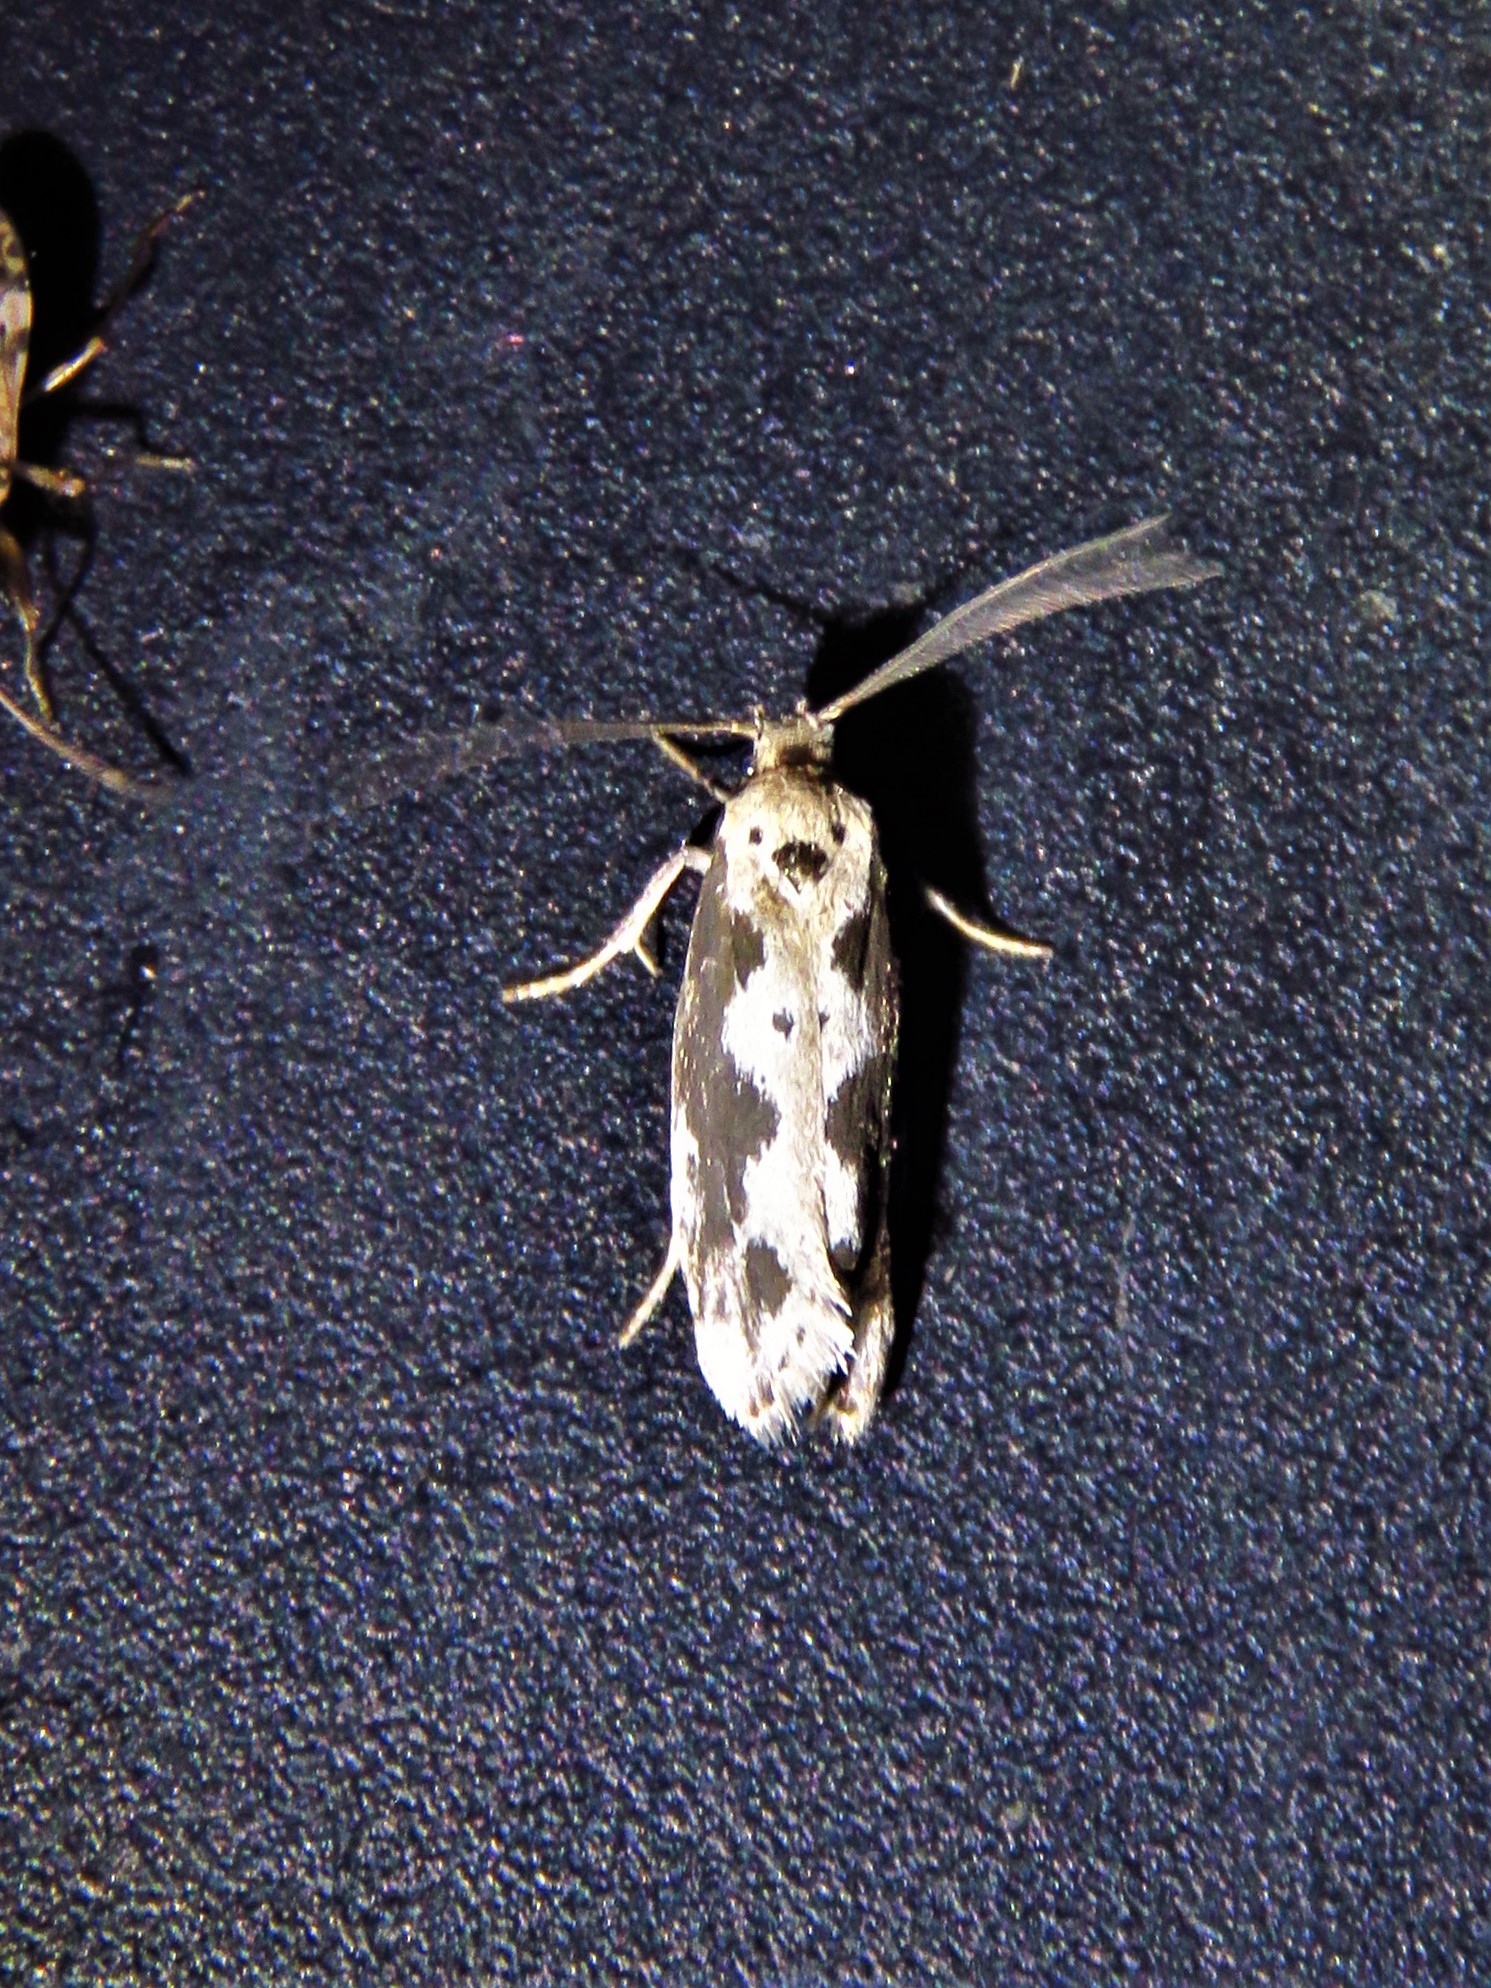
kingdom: Animalia
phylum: Arthropoda
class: Insecta
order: Lepidoptera
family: Ethmiidae
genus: Ethmia
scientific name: Ethmia hodgesella
